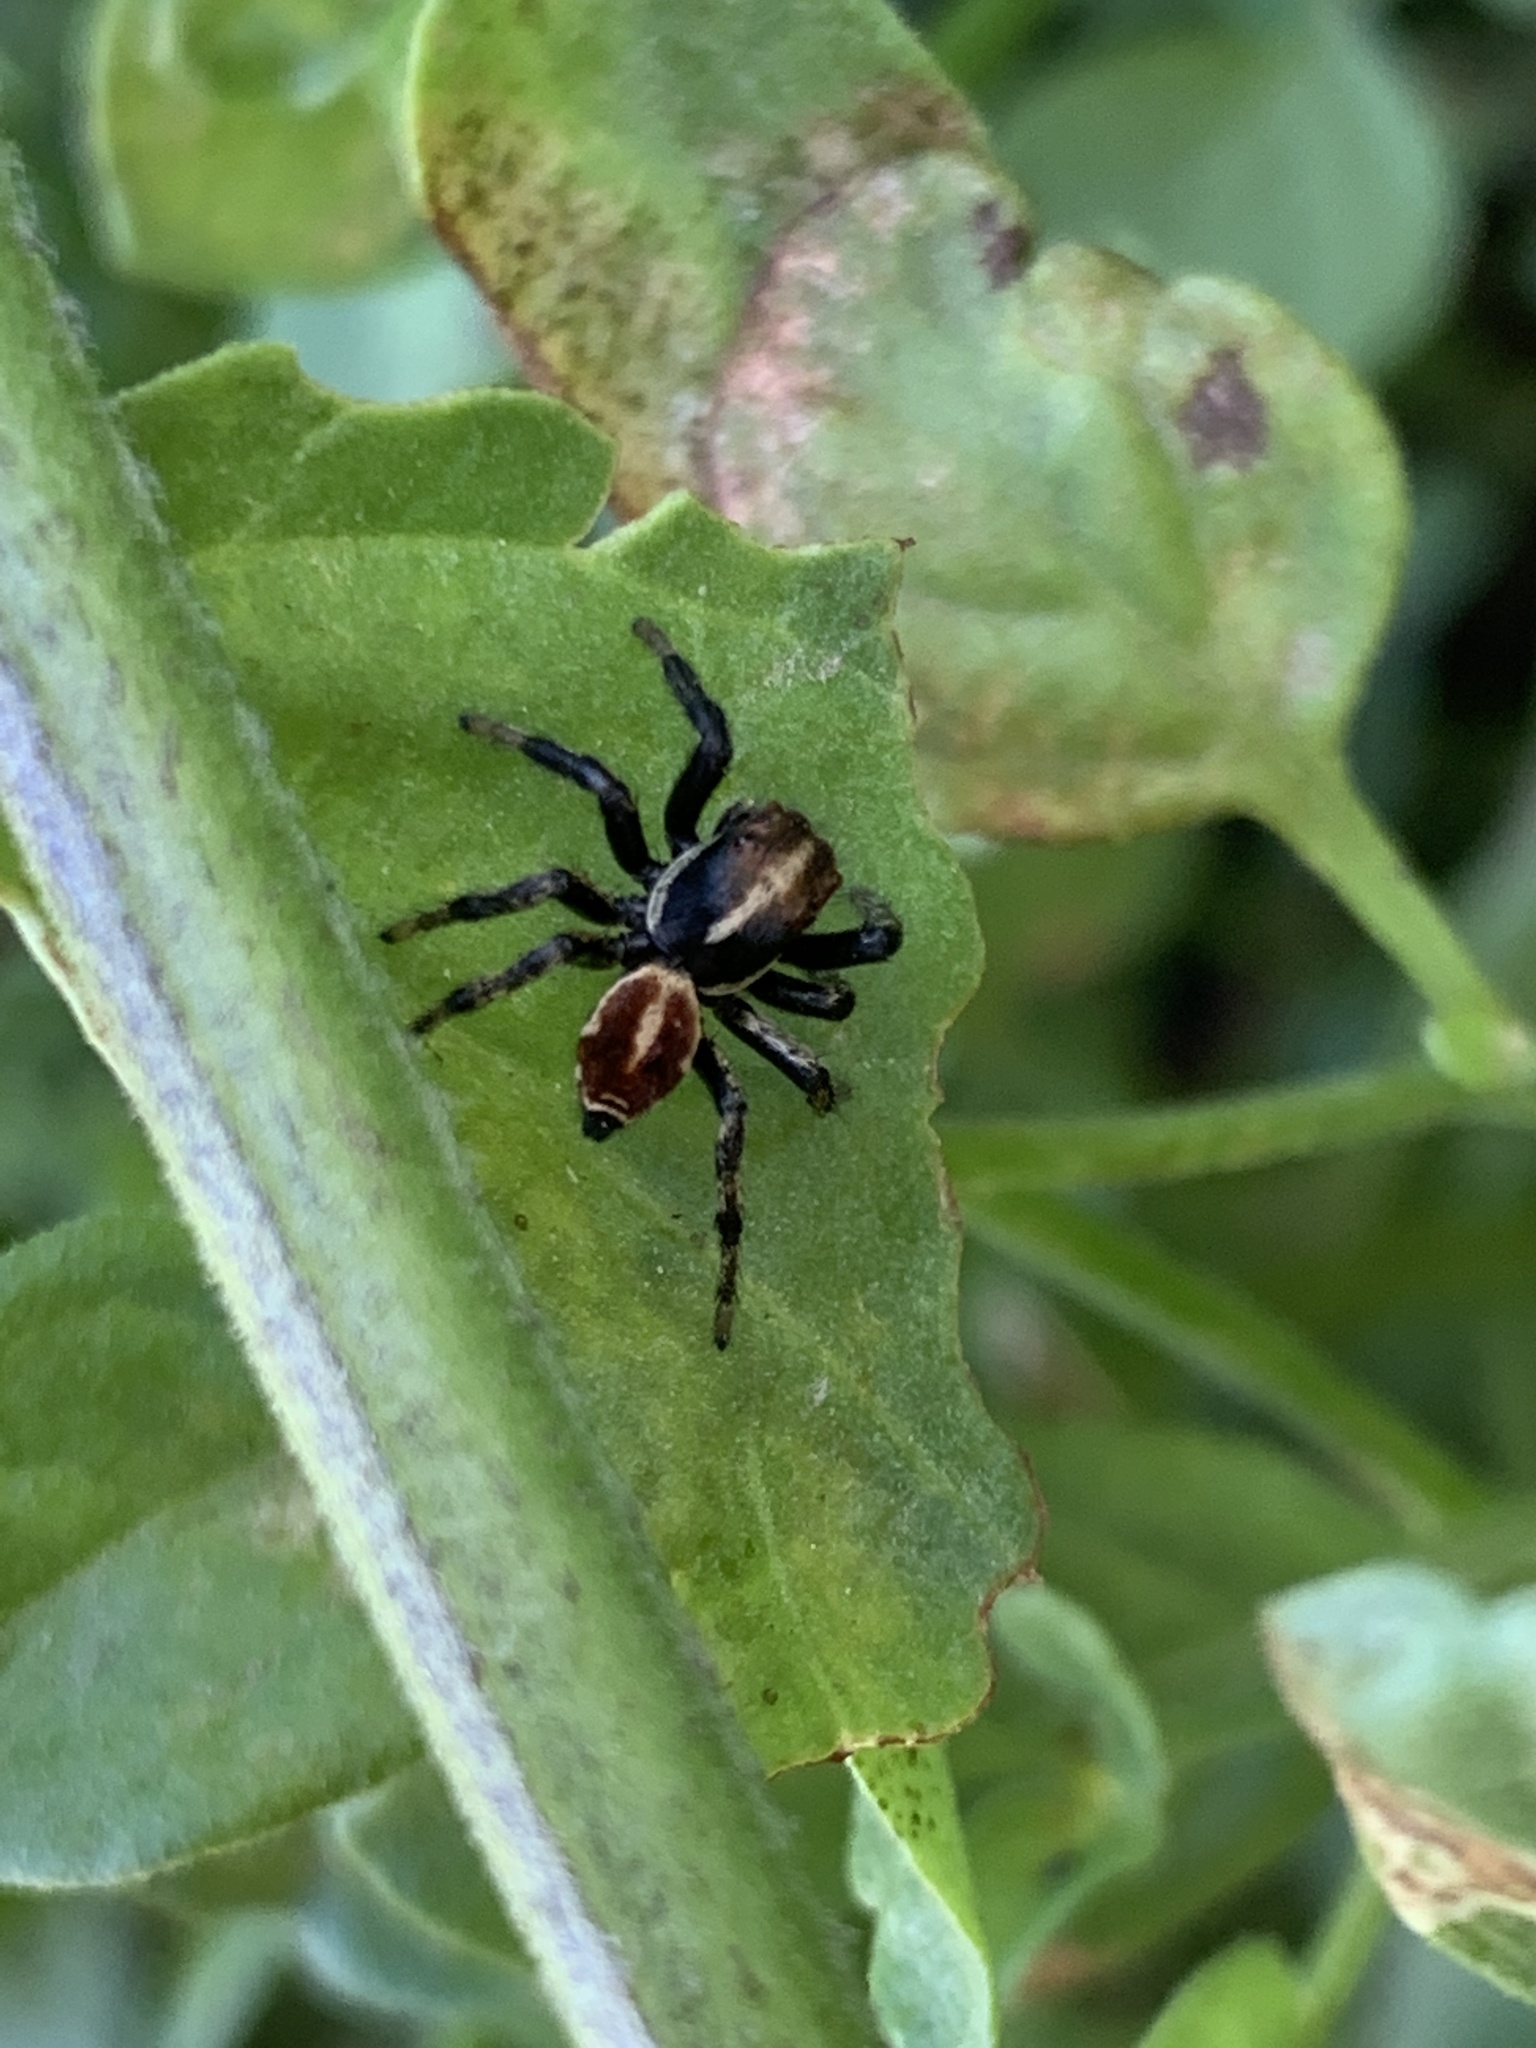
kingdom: Animalia
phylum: Arthropoda
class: Arachnida
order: Araneae
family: Salticidae
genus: Phiale
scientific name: Phiale roburifoliata
